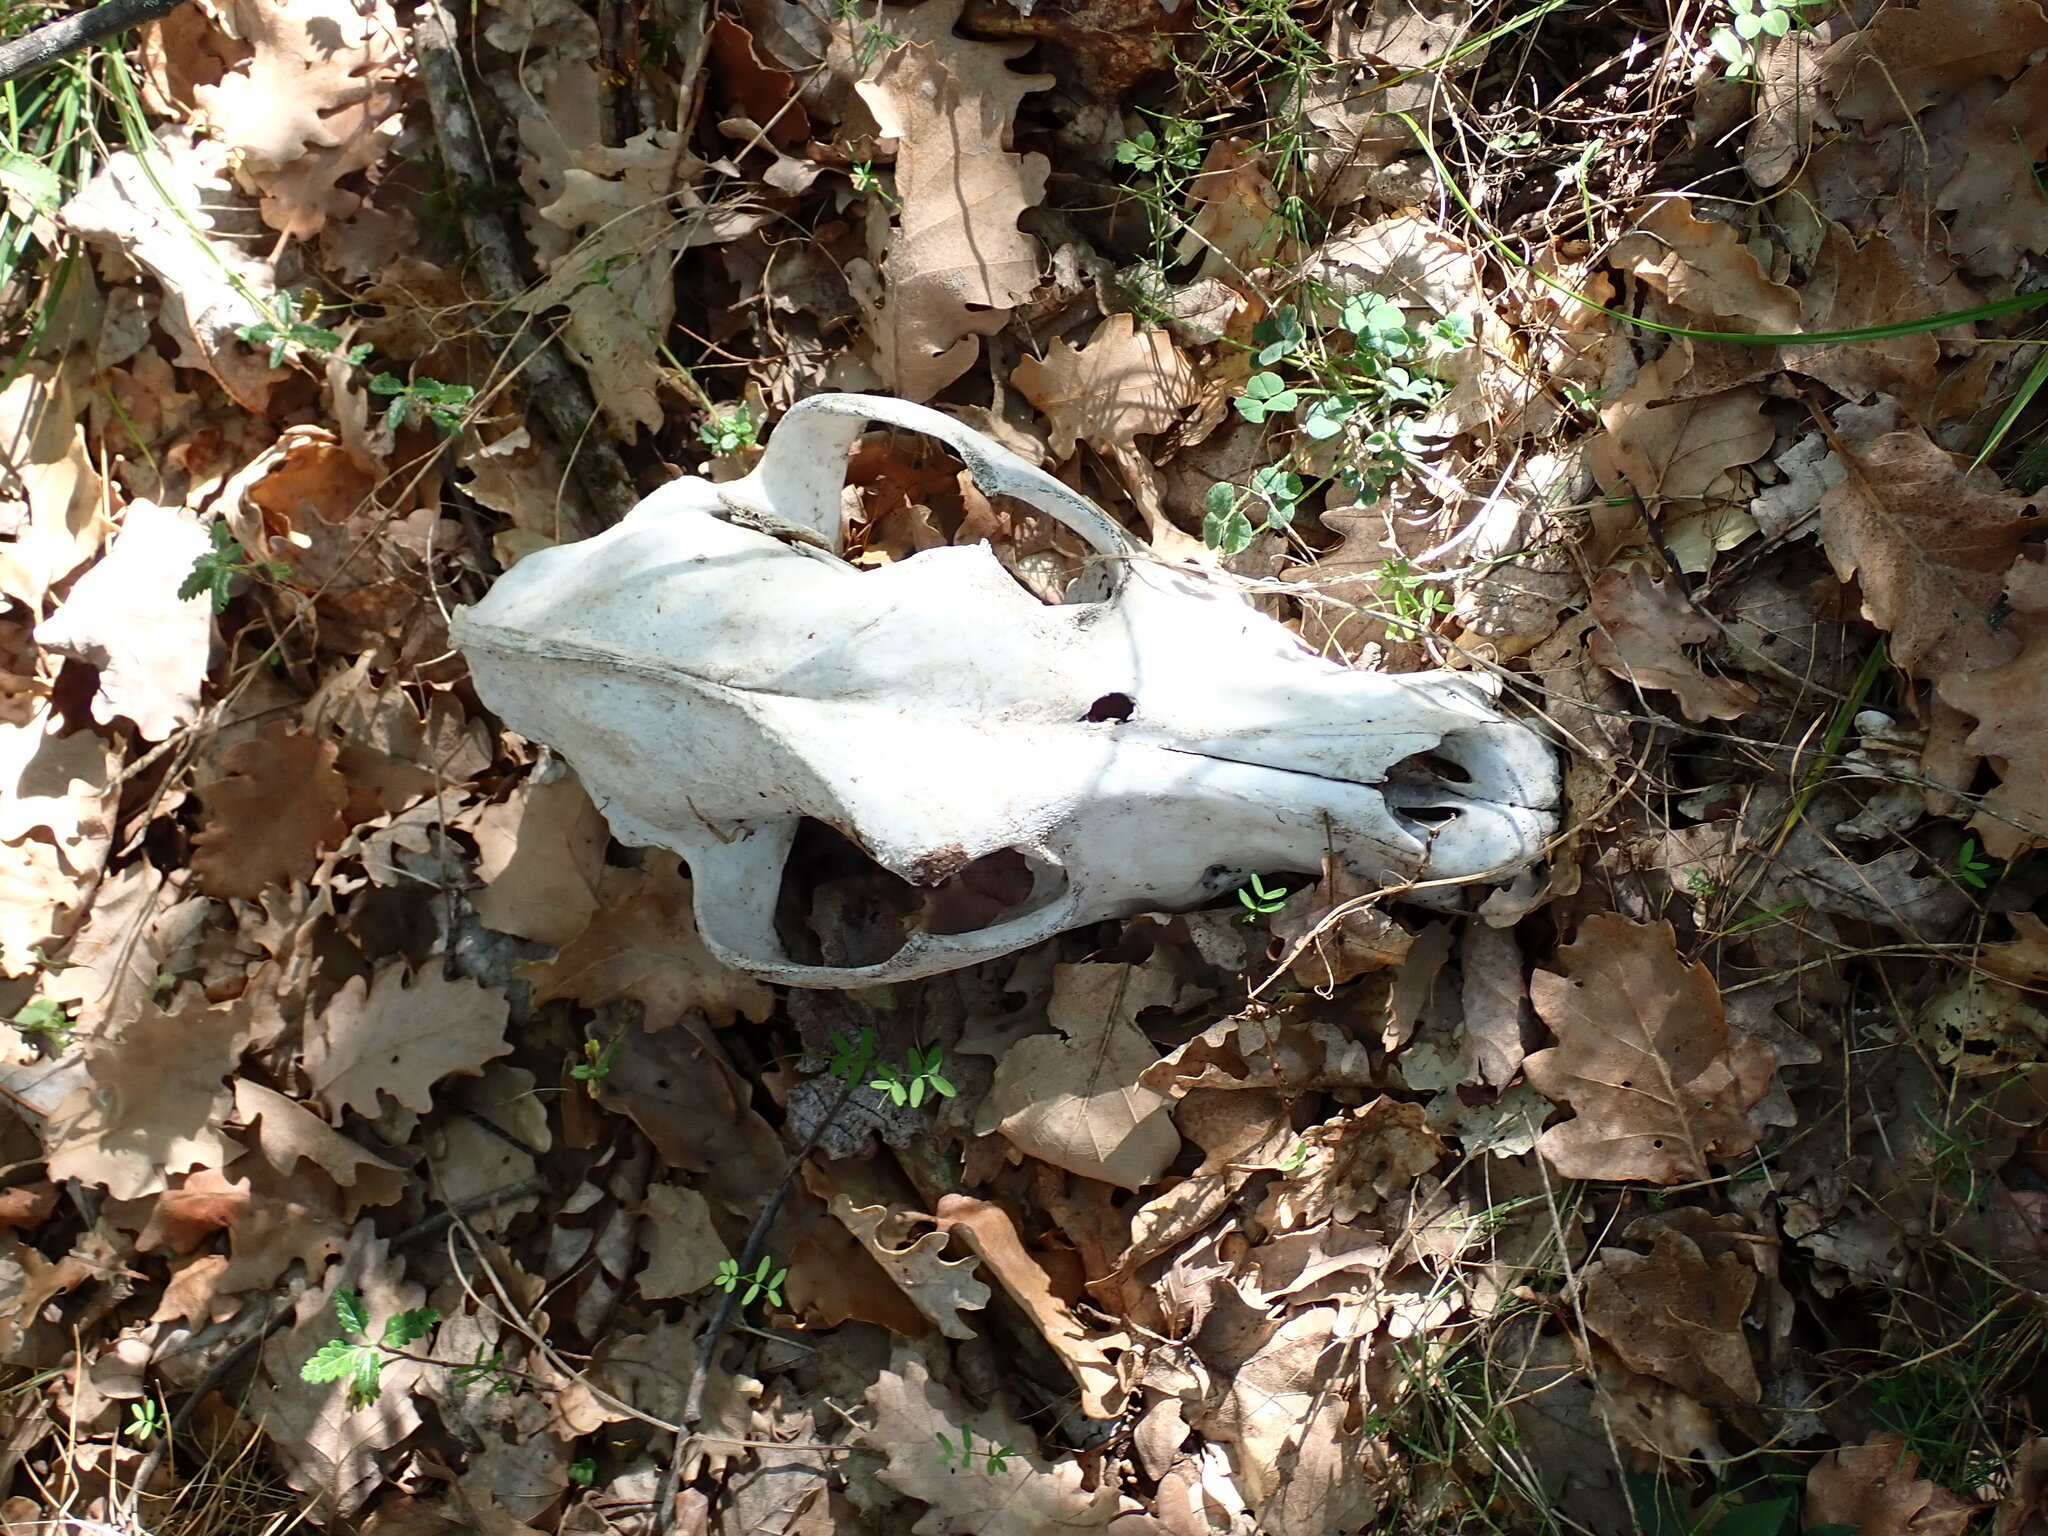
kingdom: Animalia
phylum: Chordata
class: Mammalia
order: Carnivora
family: Canidae
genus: Vulpes
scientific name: Vulpes vulpes
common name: Red fox
